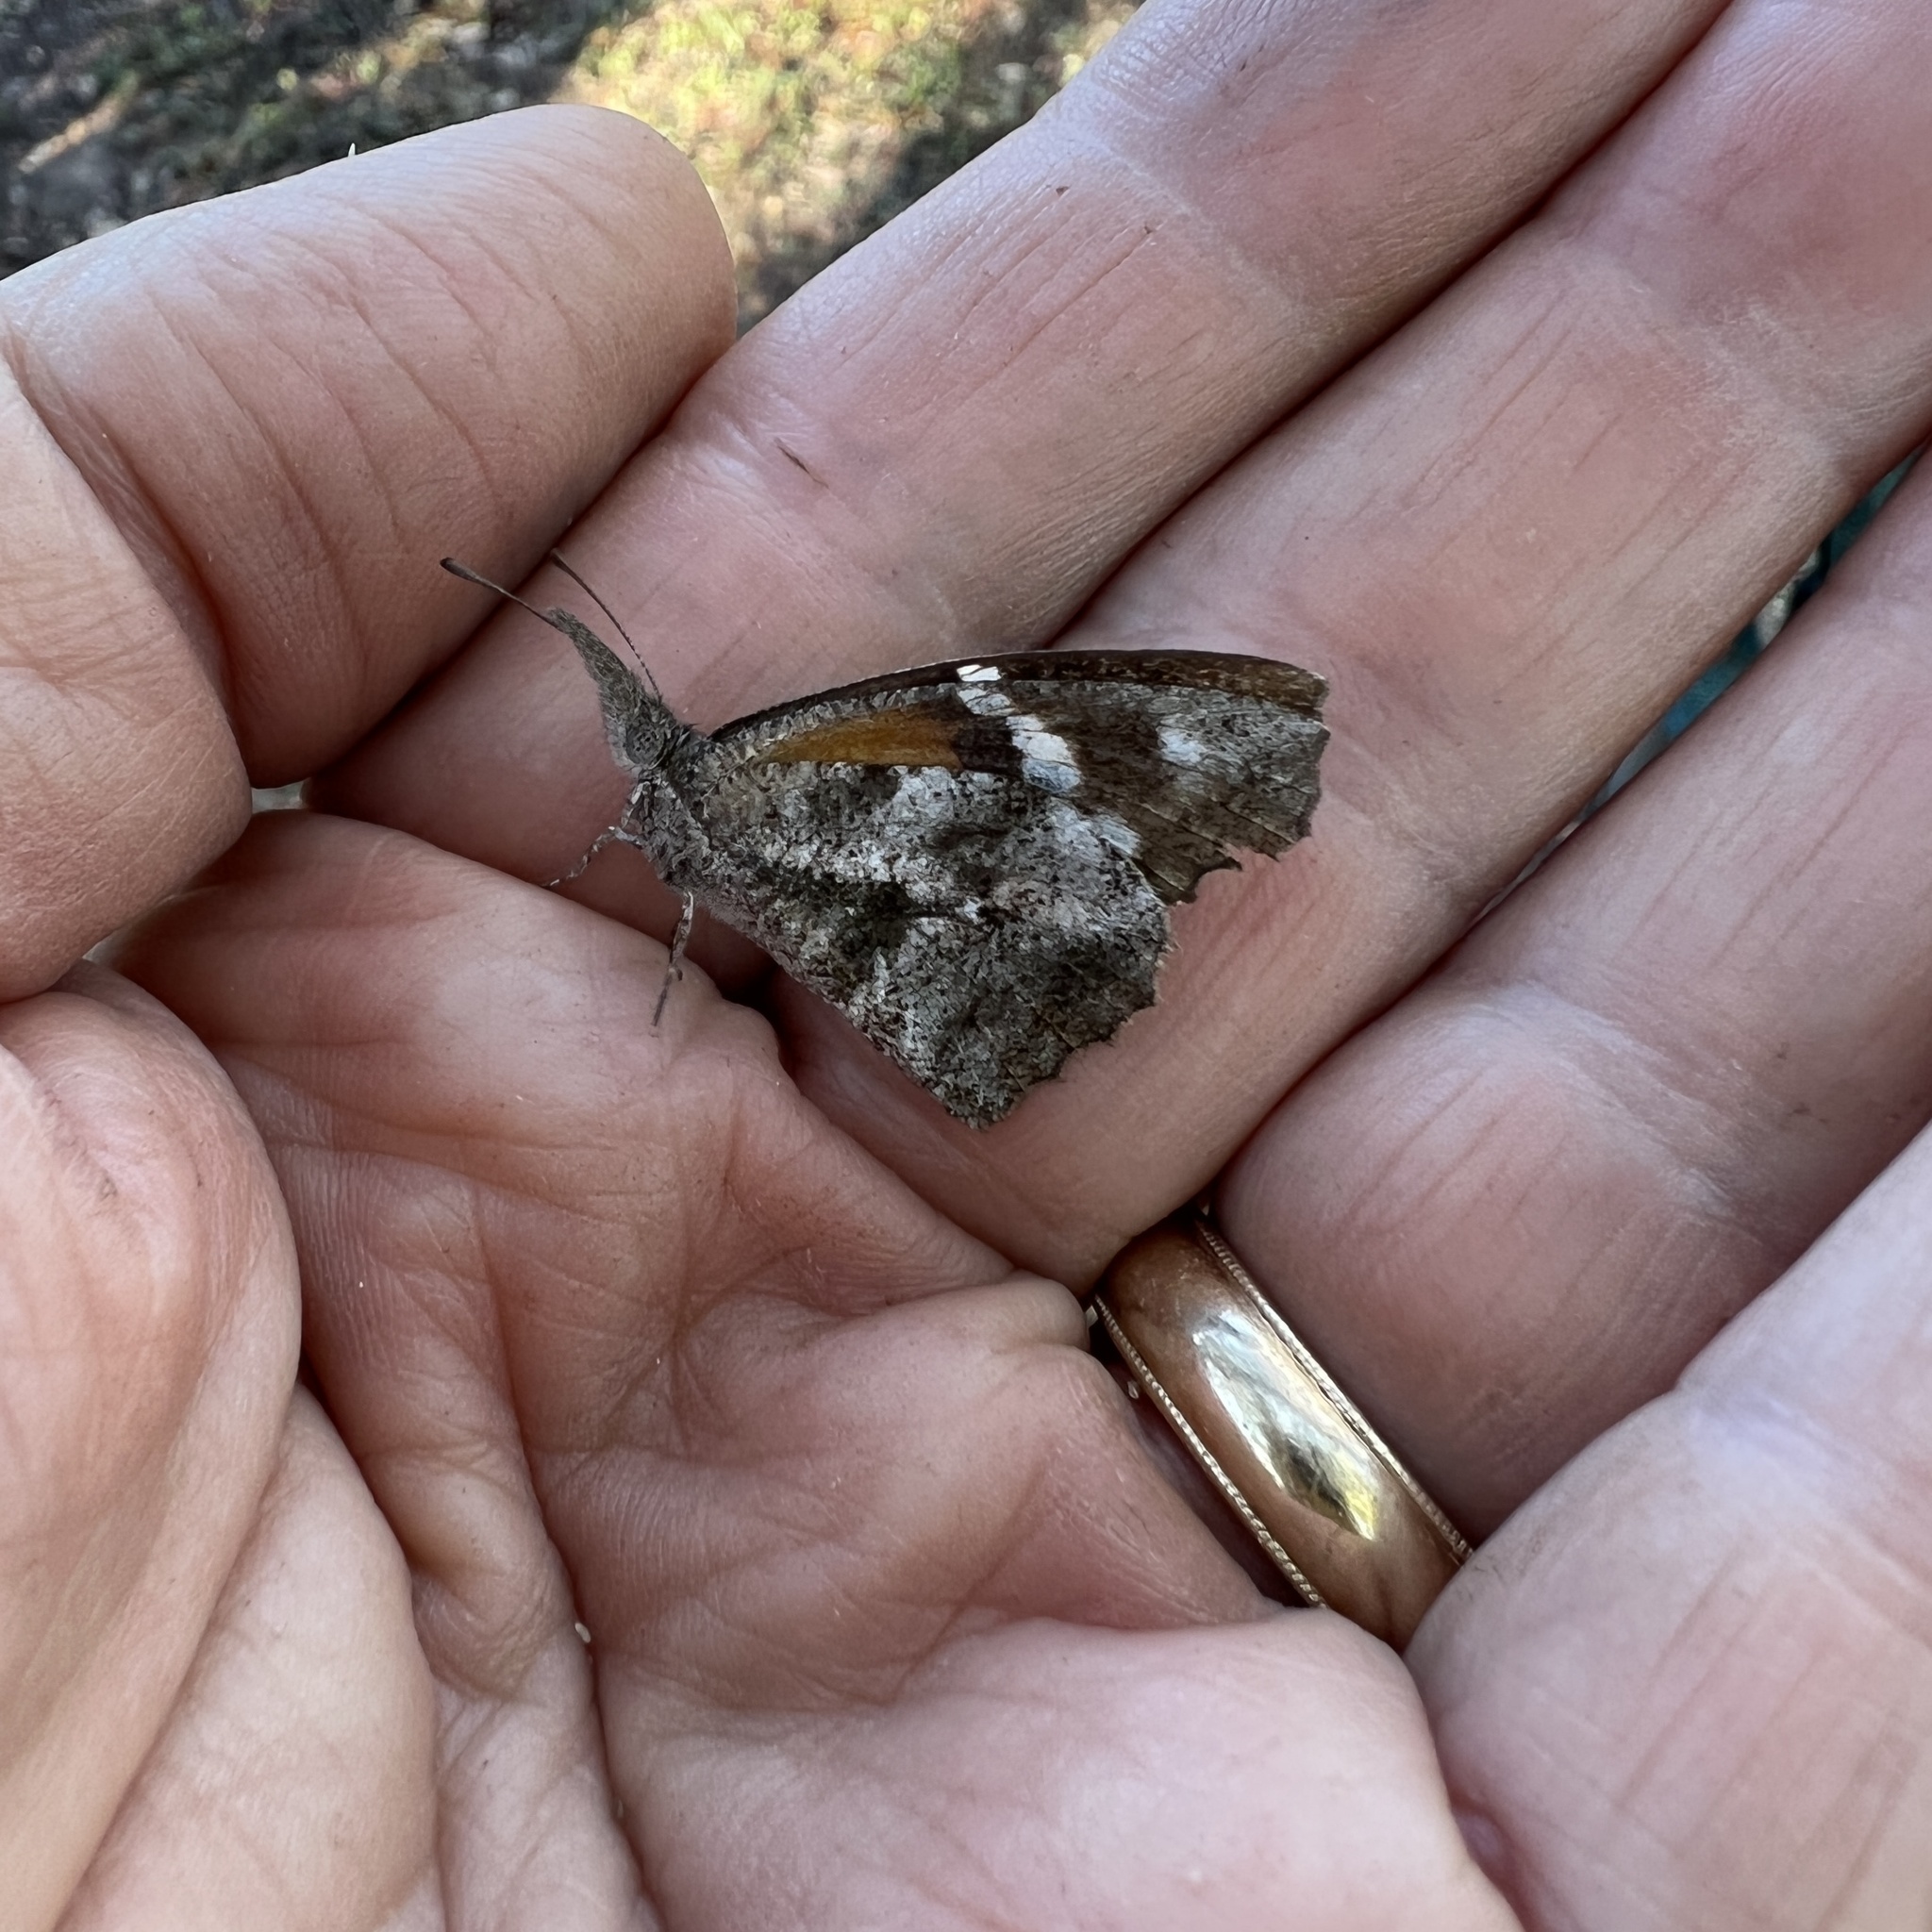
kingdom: Animalia
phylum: Arthropoda
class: Insecta
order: Lepidoptera
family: Nymphalidae
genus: Libytheana
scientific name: Libytheana carinenta
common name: American snout
